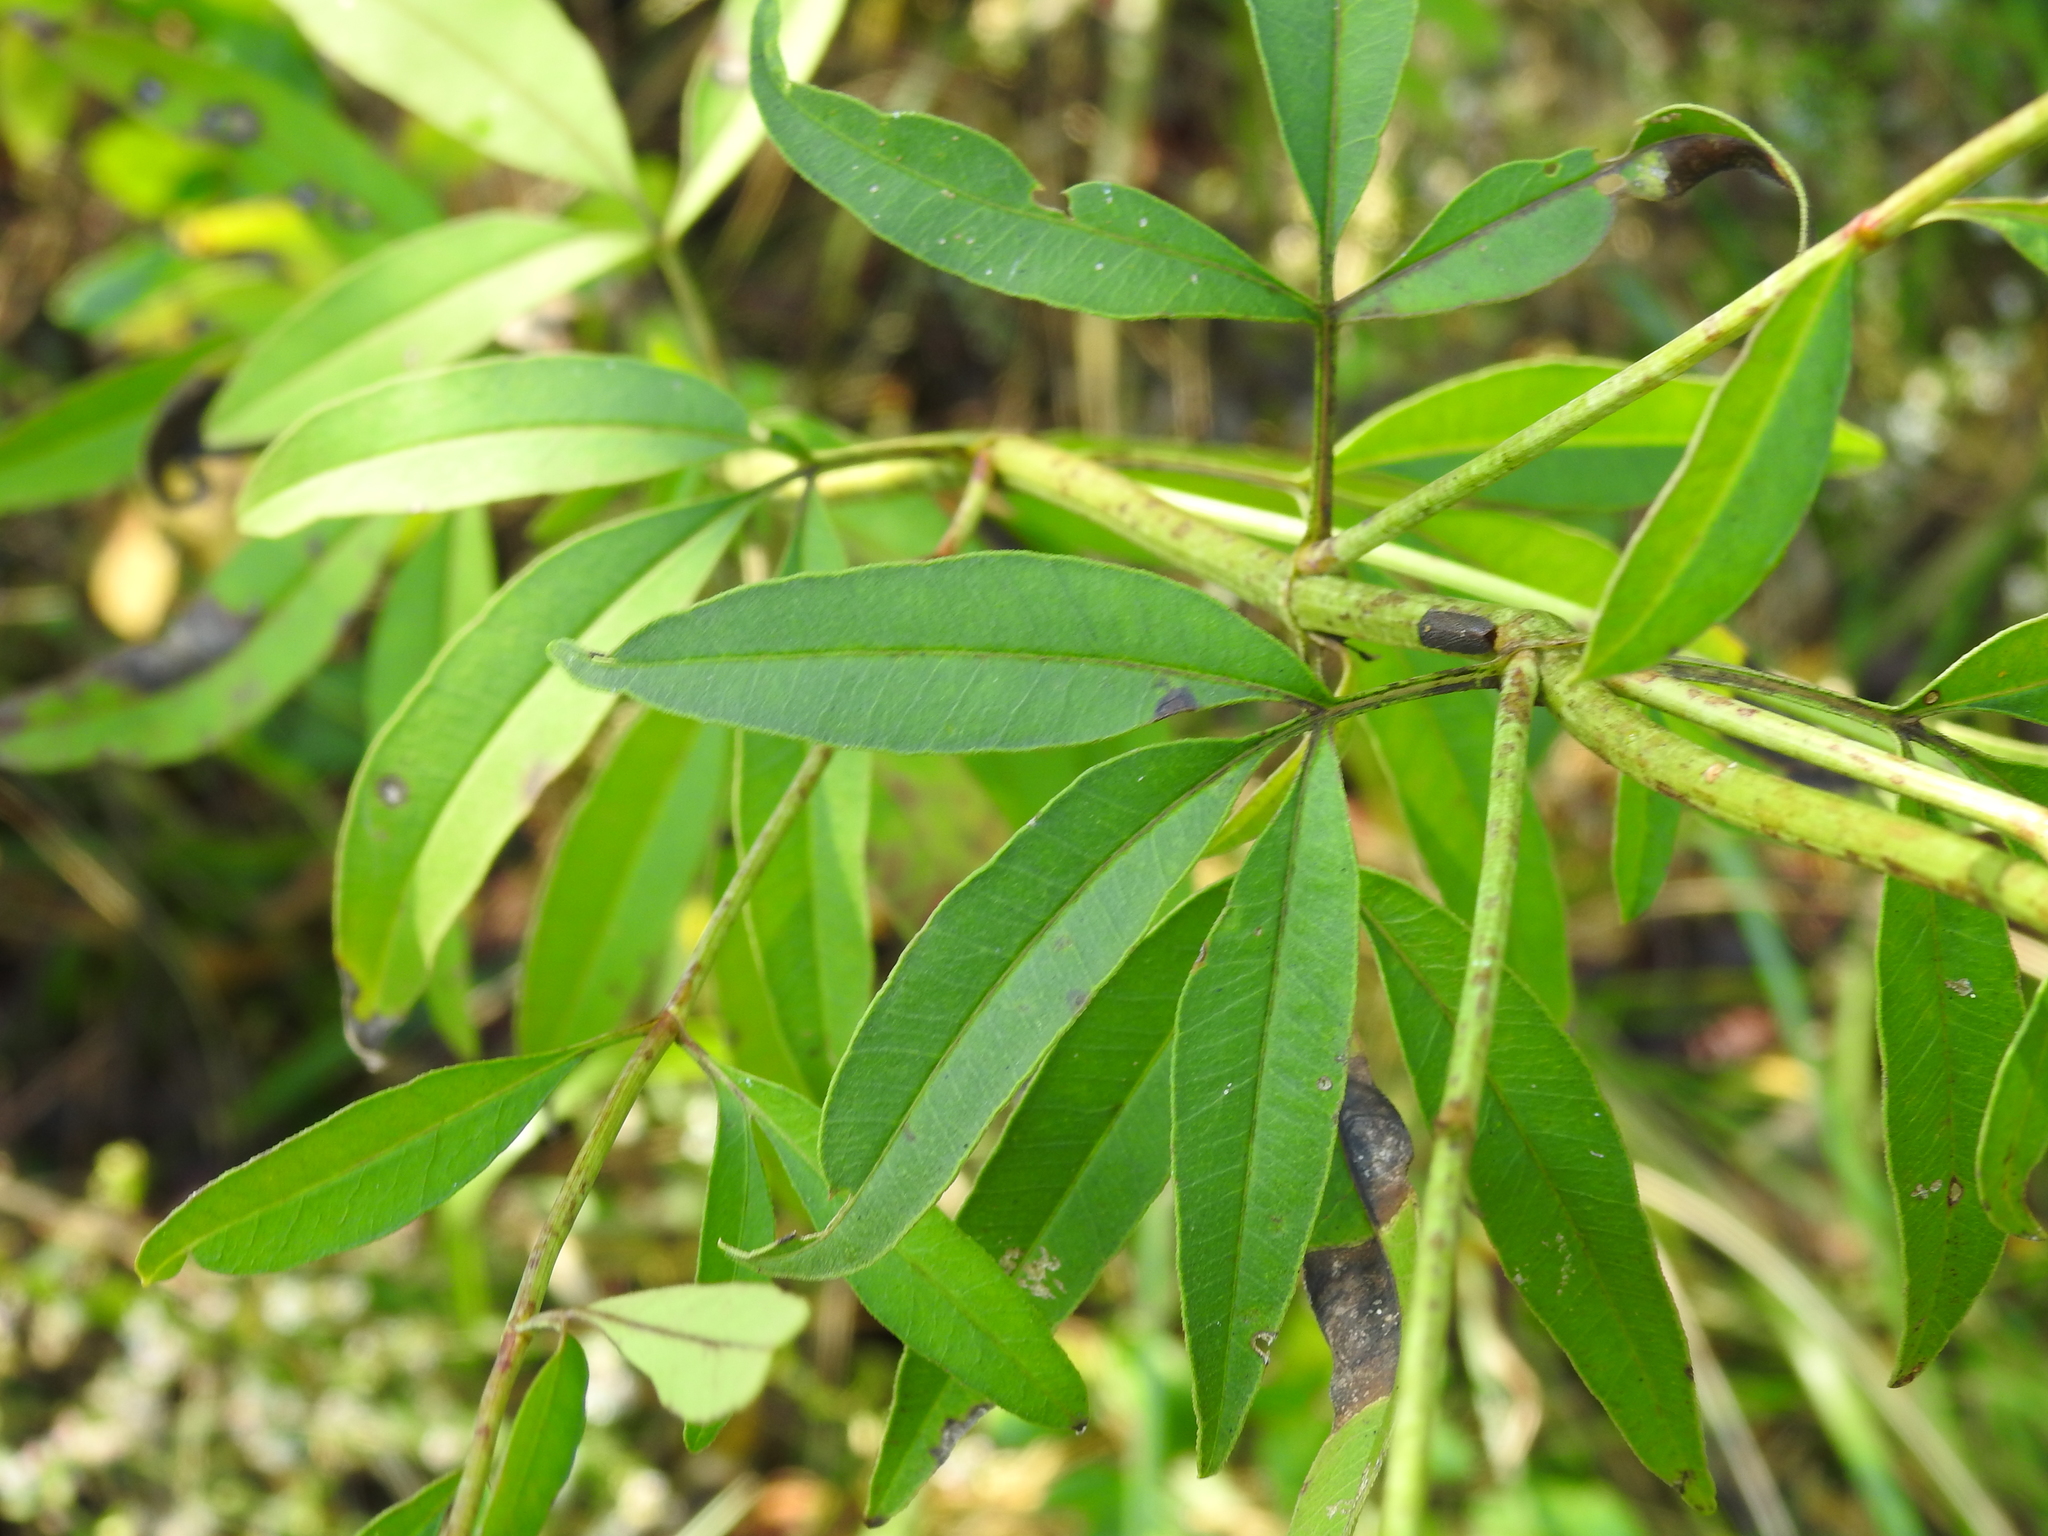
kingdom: Plantae
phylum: Tracheophyta
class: Magnoliopsida
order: Asterales
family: Asteraceae
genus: Coreopsis
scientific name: Coreopsis tripteris
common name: Tall coreopsis
